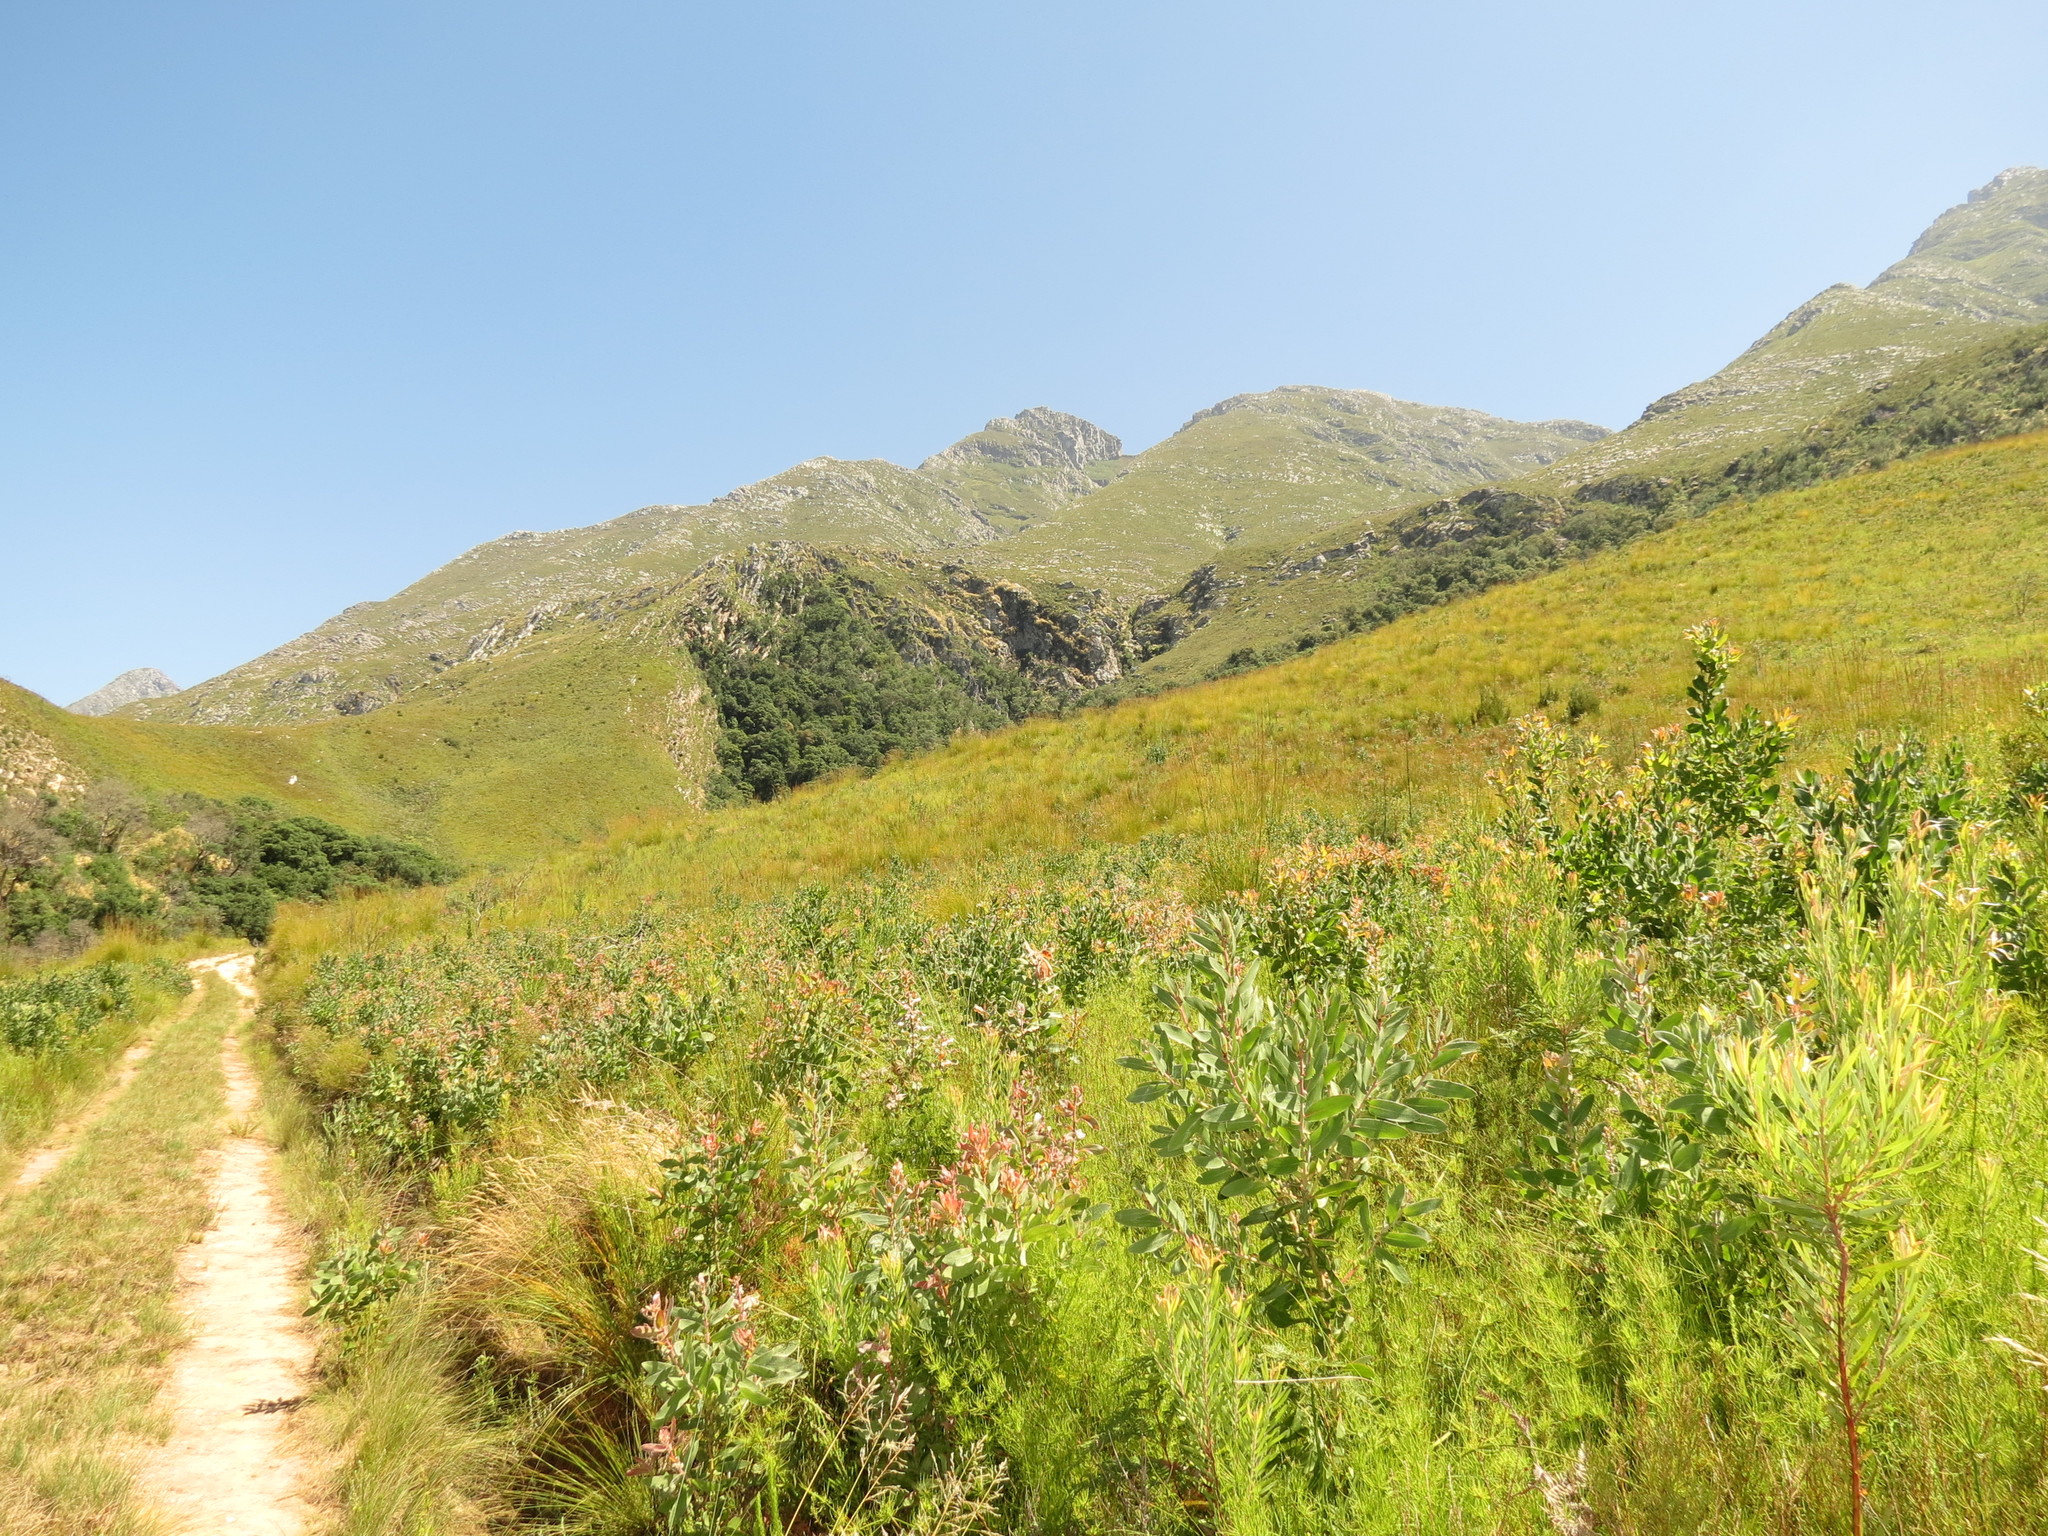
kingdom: Plantae
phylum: Tracheophyta
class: Magnoliopsida
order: Proteales
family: Proteaceae
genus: Protea
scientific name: Protea aurea
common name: Shuttlecock sugarbush
